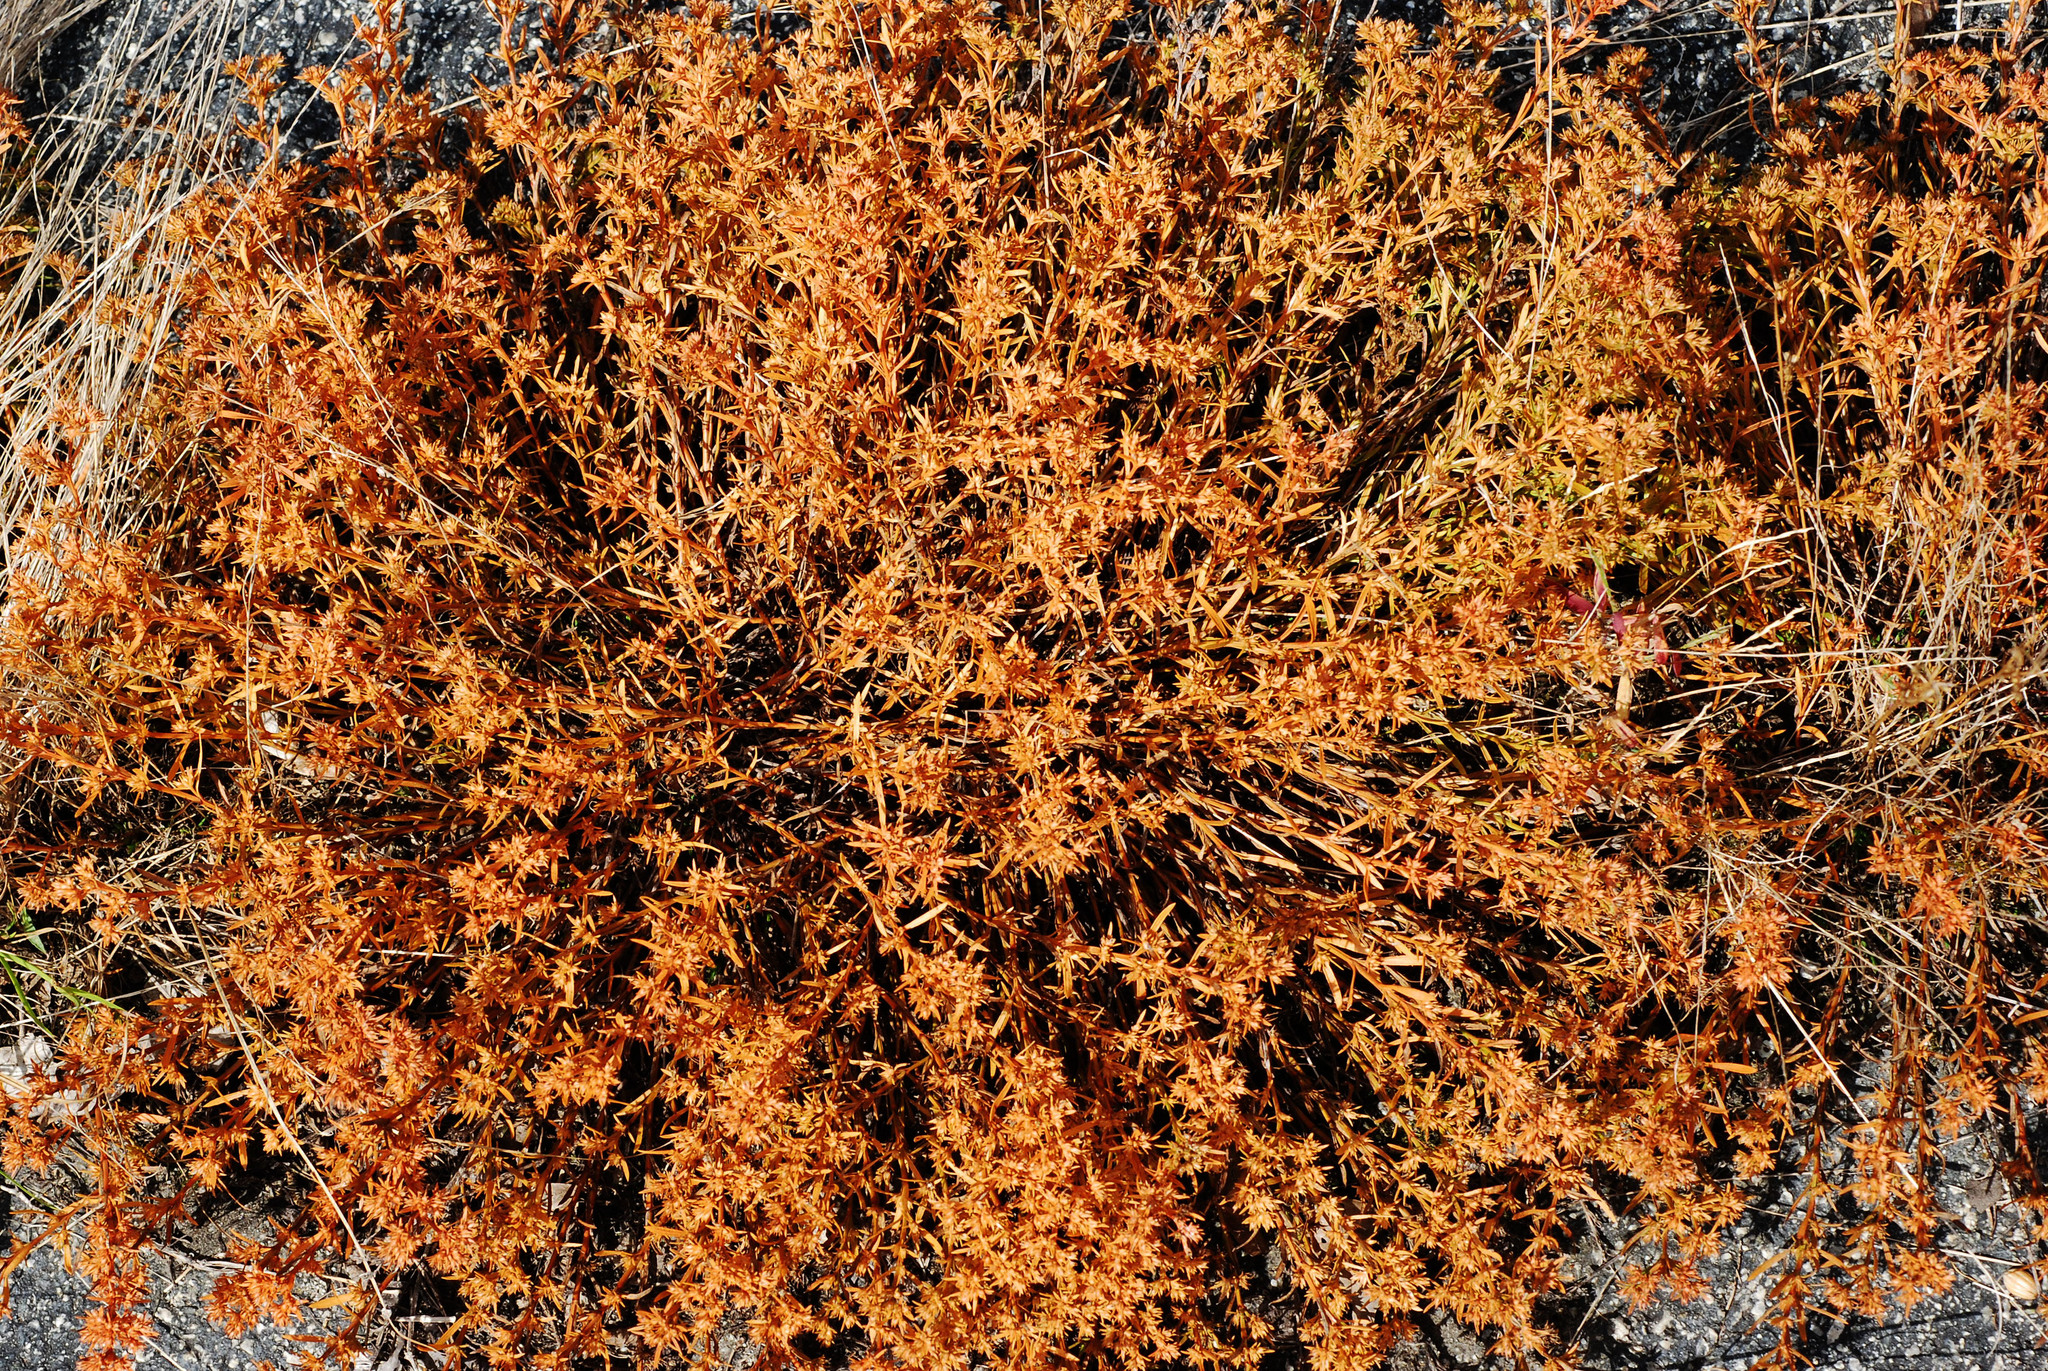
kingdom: Plantae
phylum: Tracheophyta
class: Magnoliopsida
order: Lamiales
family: Tetrachondraceae
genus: Polypremum
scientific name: Polypremum procumbens
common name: Juniper-leaf
